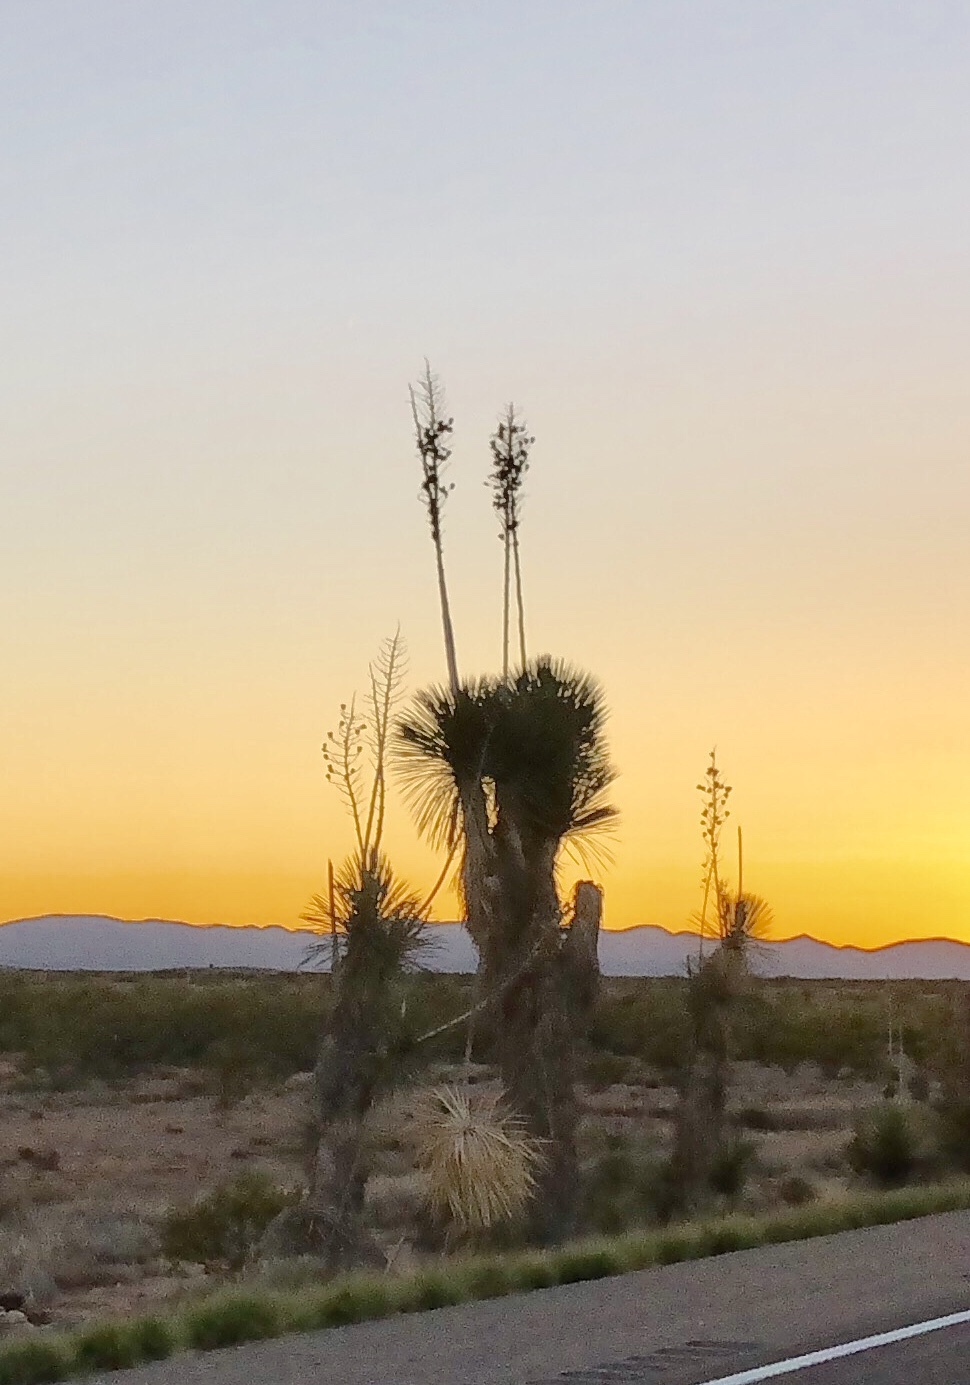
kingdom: Plantae
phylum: Tracheophyta
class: Liliopsida
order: Asparagales
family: Asparagaceae
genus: Yucca
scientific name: Yucca elata
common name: Palmella
